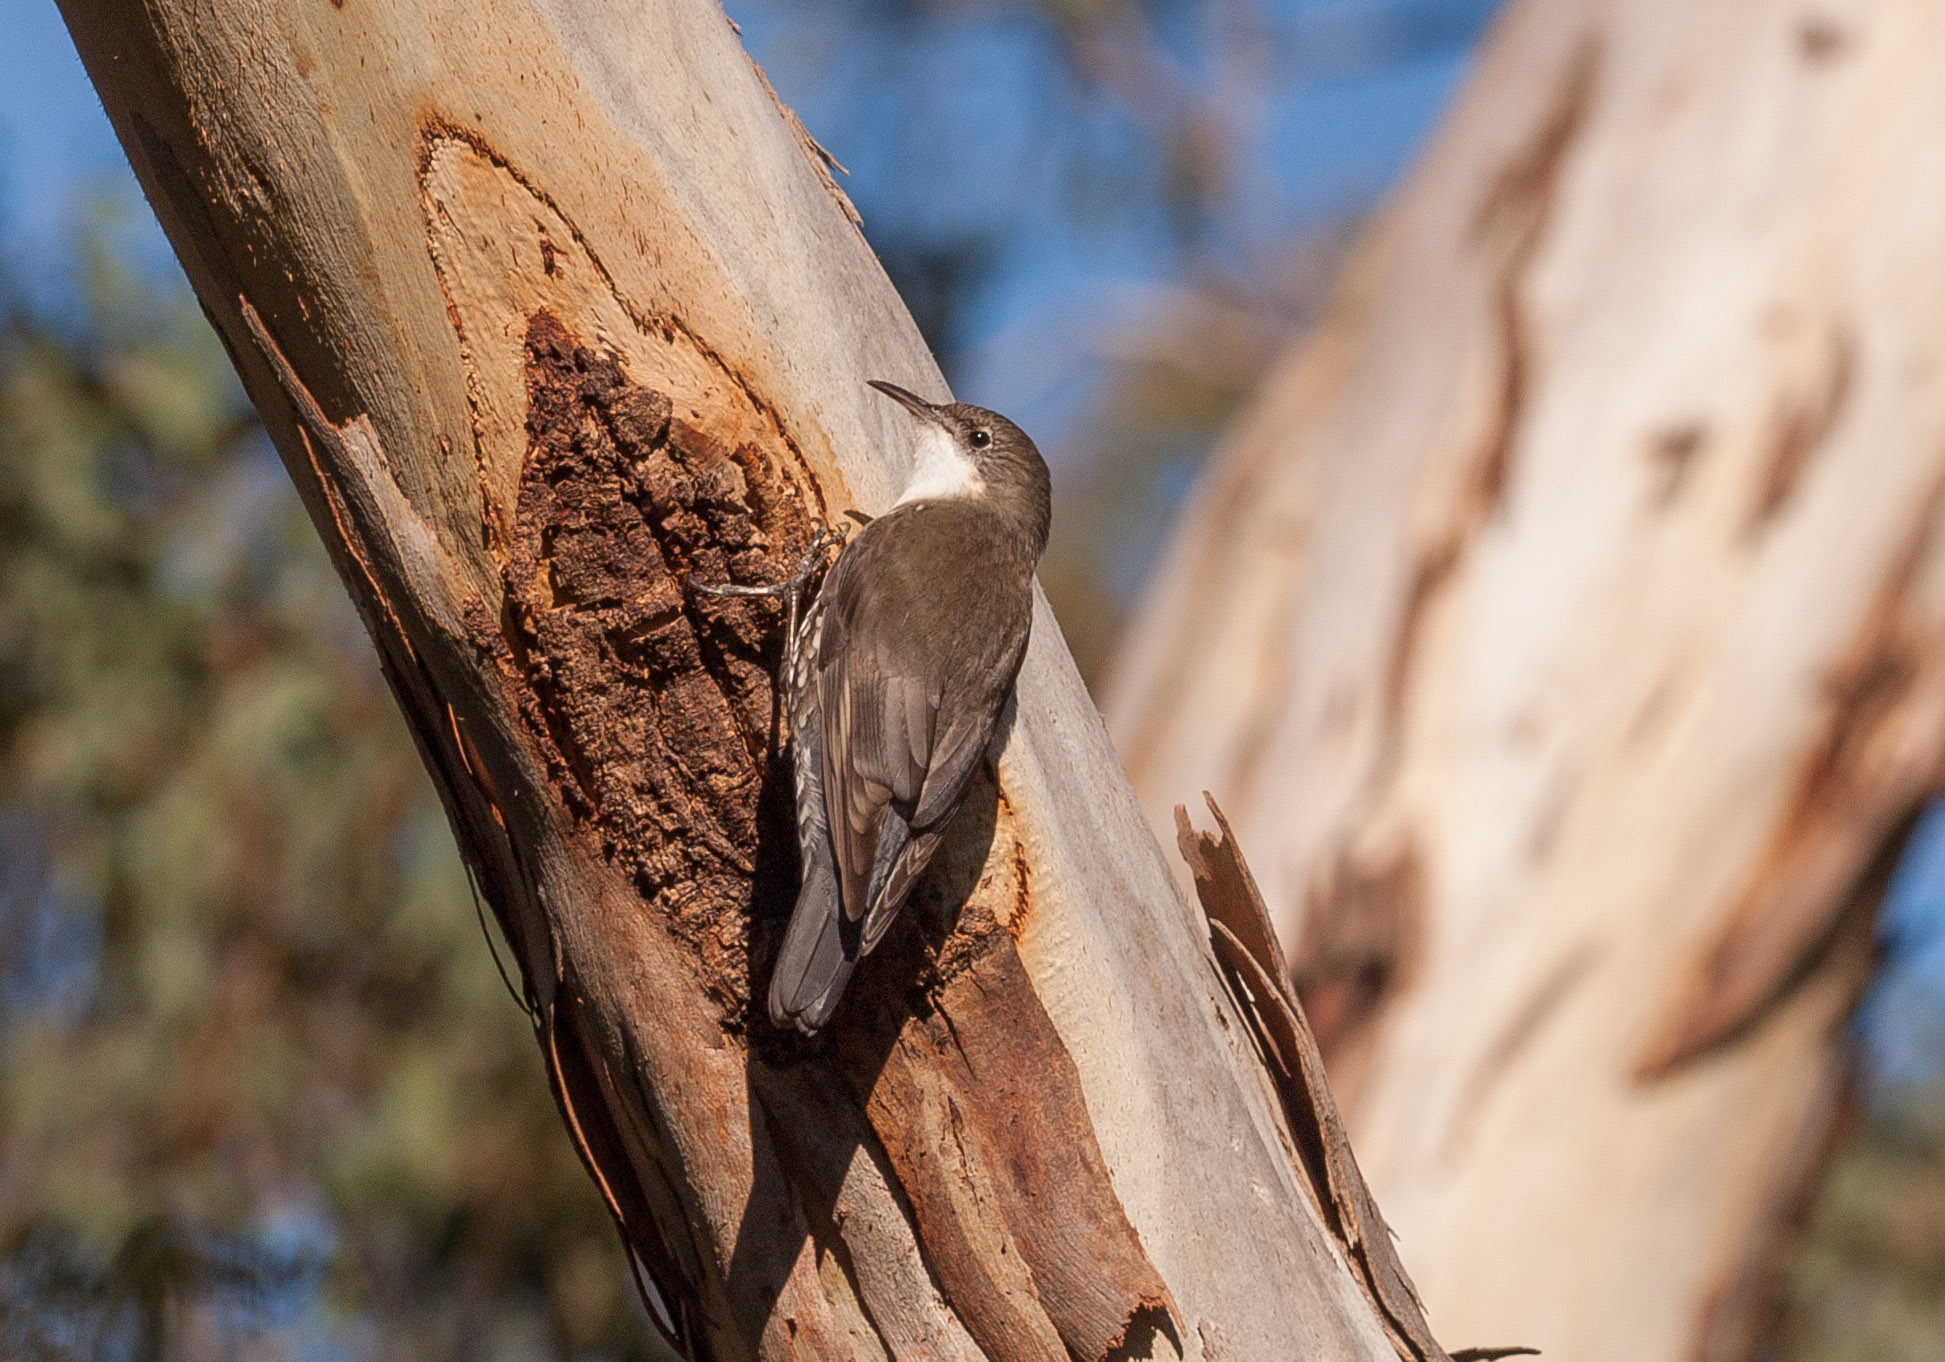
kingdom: Animalia
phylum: Chordata
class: Aves
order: Passeriformes
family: Climacteridae
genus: Cormobates
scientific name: Cormobates leucophaea
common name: White-throated treecreeper
